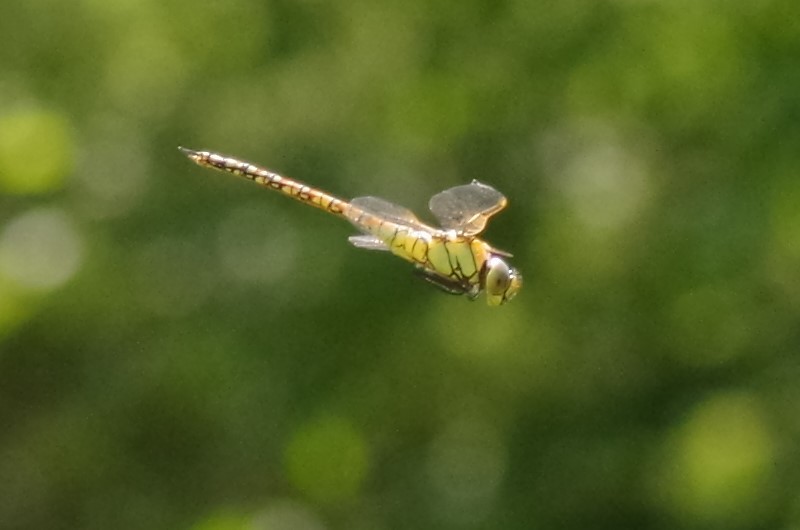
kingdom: Animalia
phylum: Arthropoda
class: Insecta
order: Odonata
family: Aeshnidae
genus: Aeshna
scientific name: Aeshna affinis
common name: Southern migrant hawker
